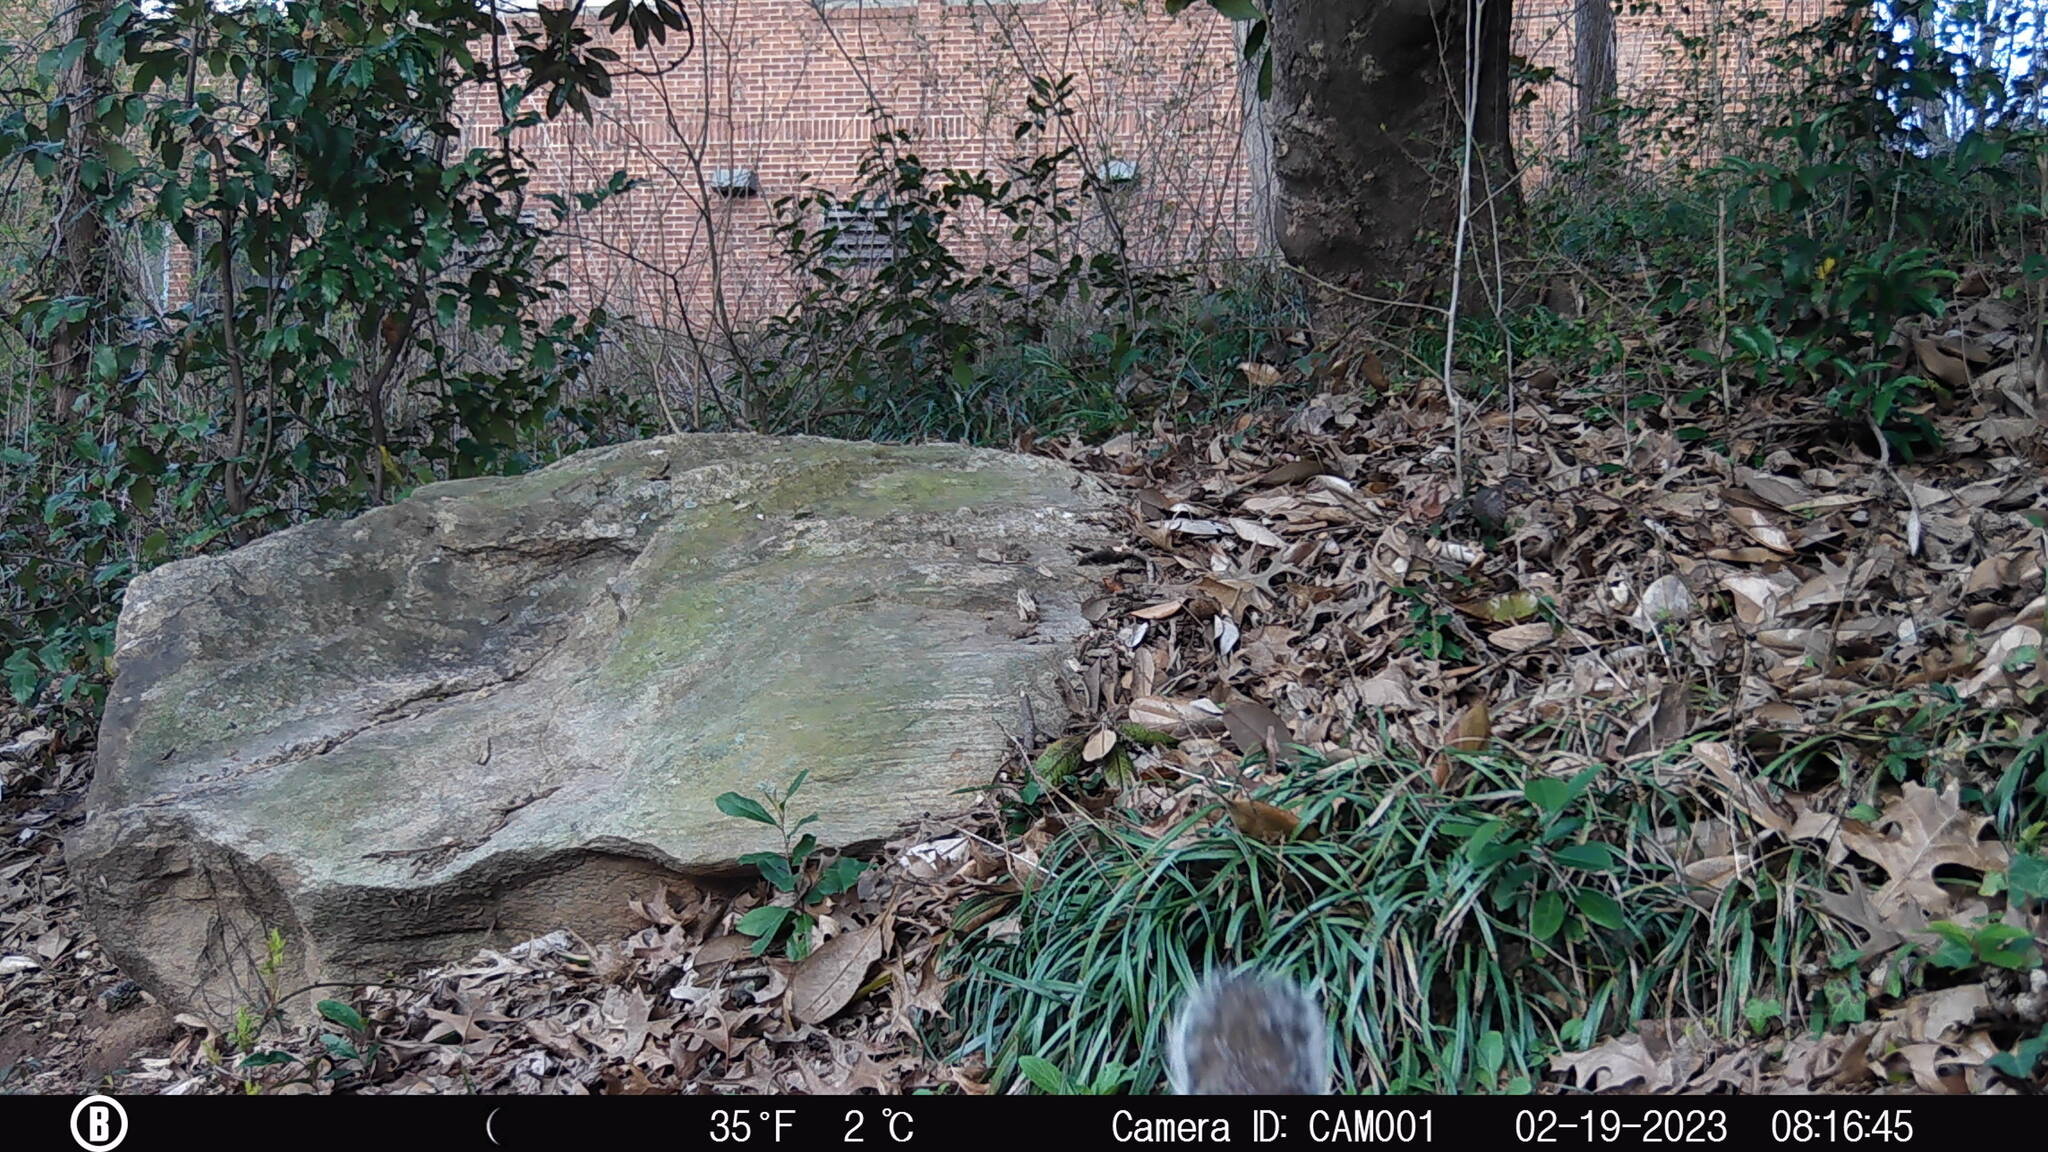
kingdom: Animalia
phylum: Chordata
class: Mammalia
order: Rodentia
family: Sciuridae
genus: Sciurus
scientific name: Sciurus carolinensis
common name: Eastern gray squirrel
